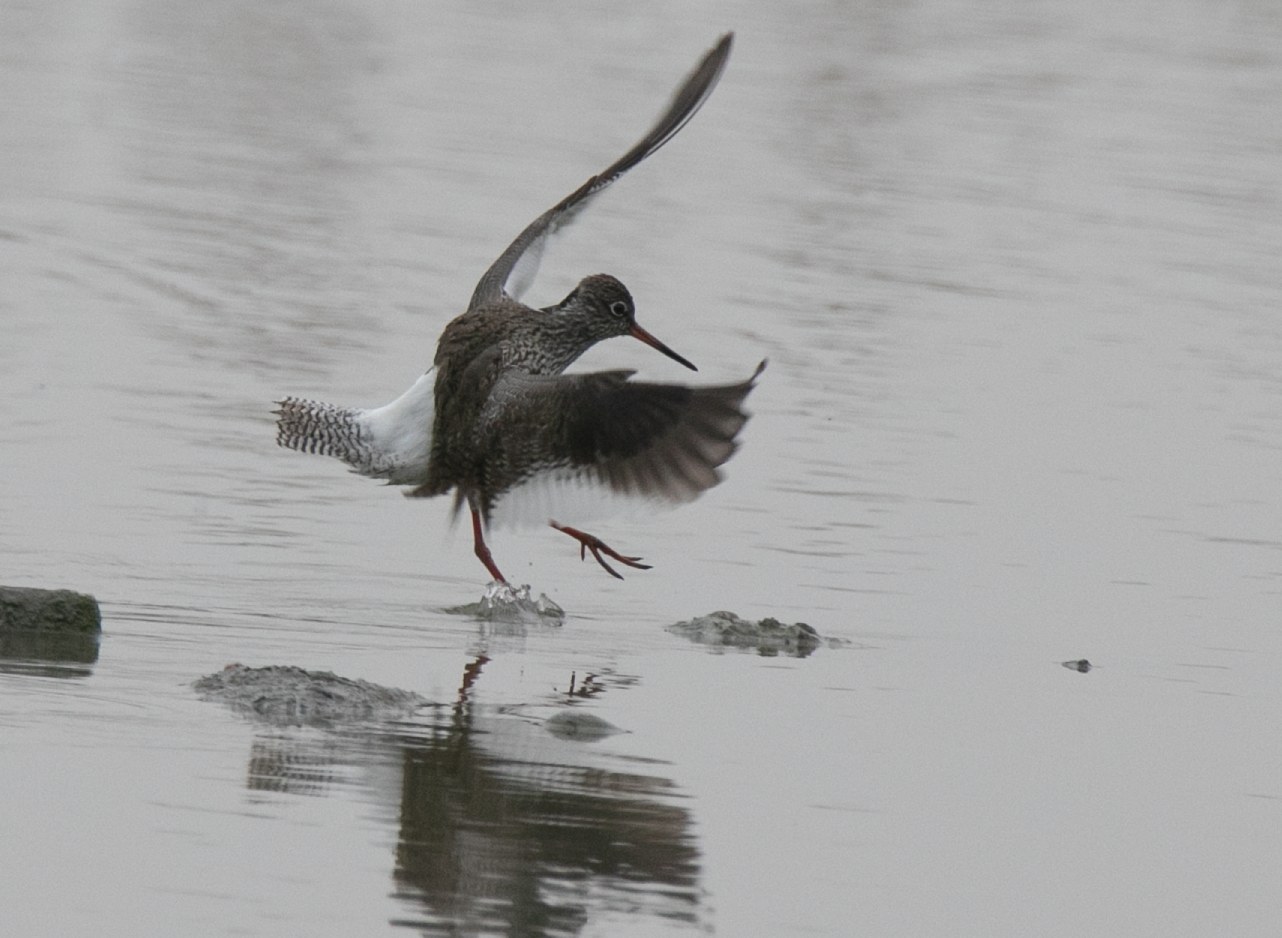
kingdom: Animalia
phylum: Chordata
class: Aves
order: Charadriiformes
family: Scolopacidae
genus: Tringa
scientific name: Tringa totanus
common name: Common redshank
